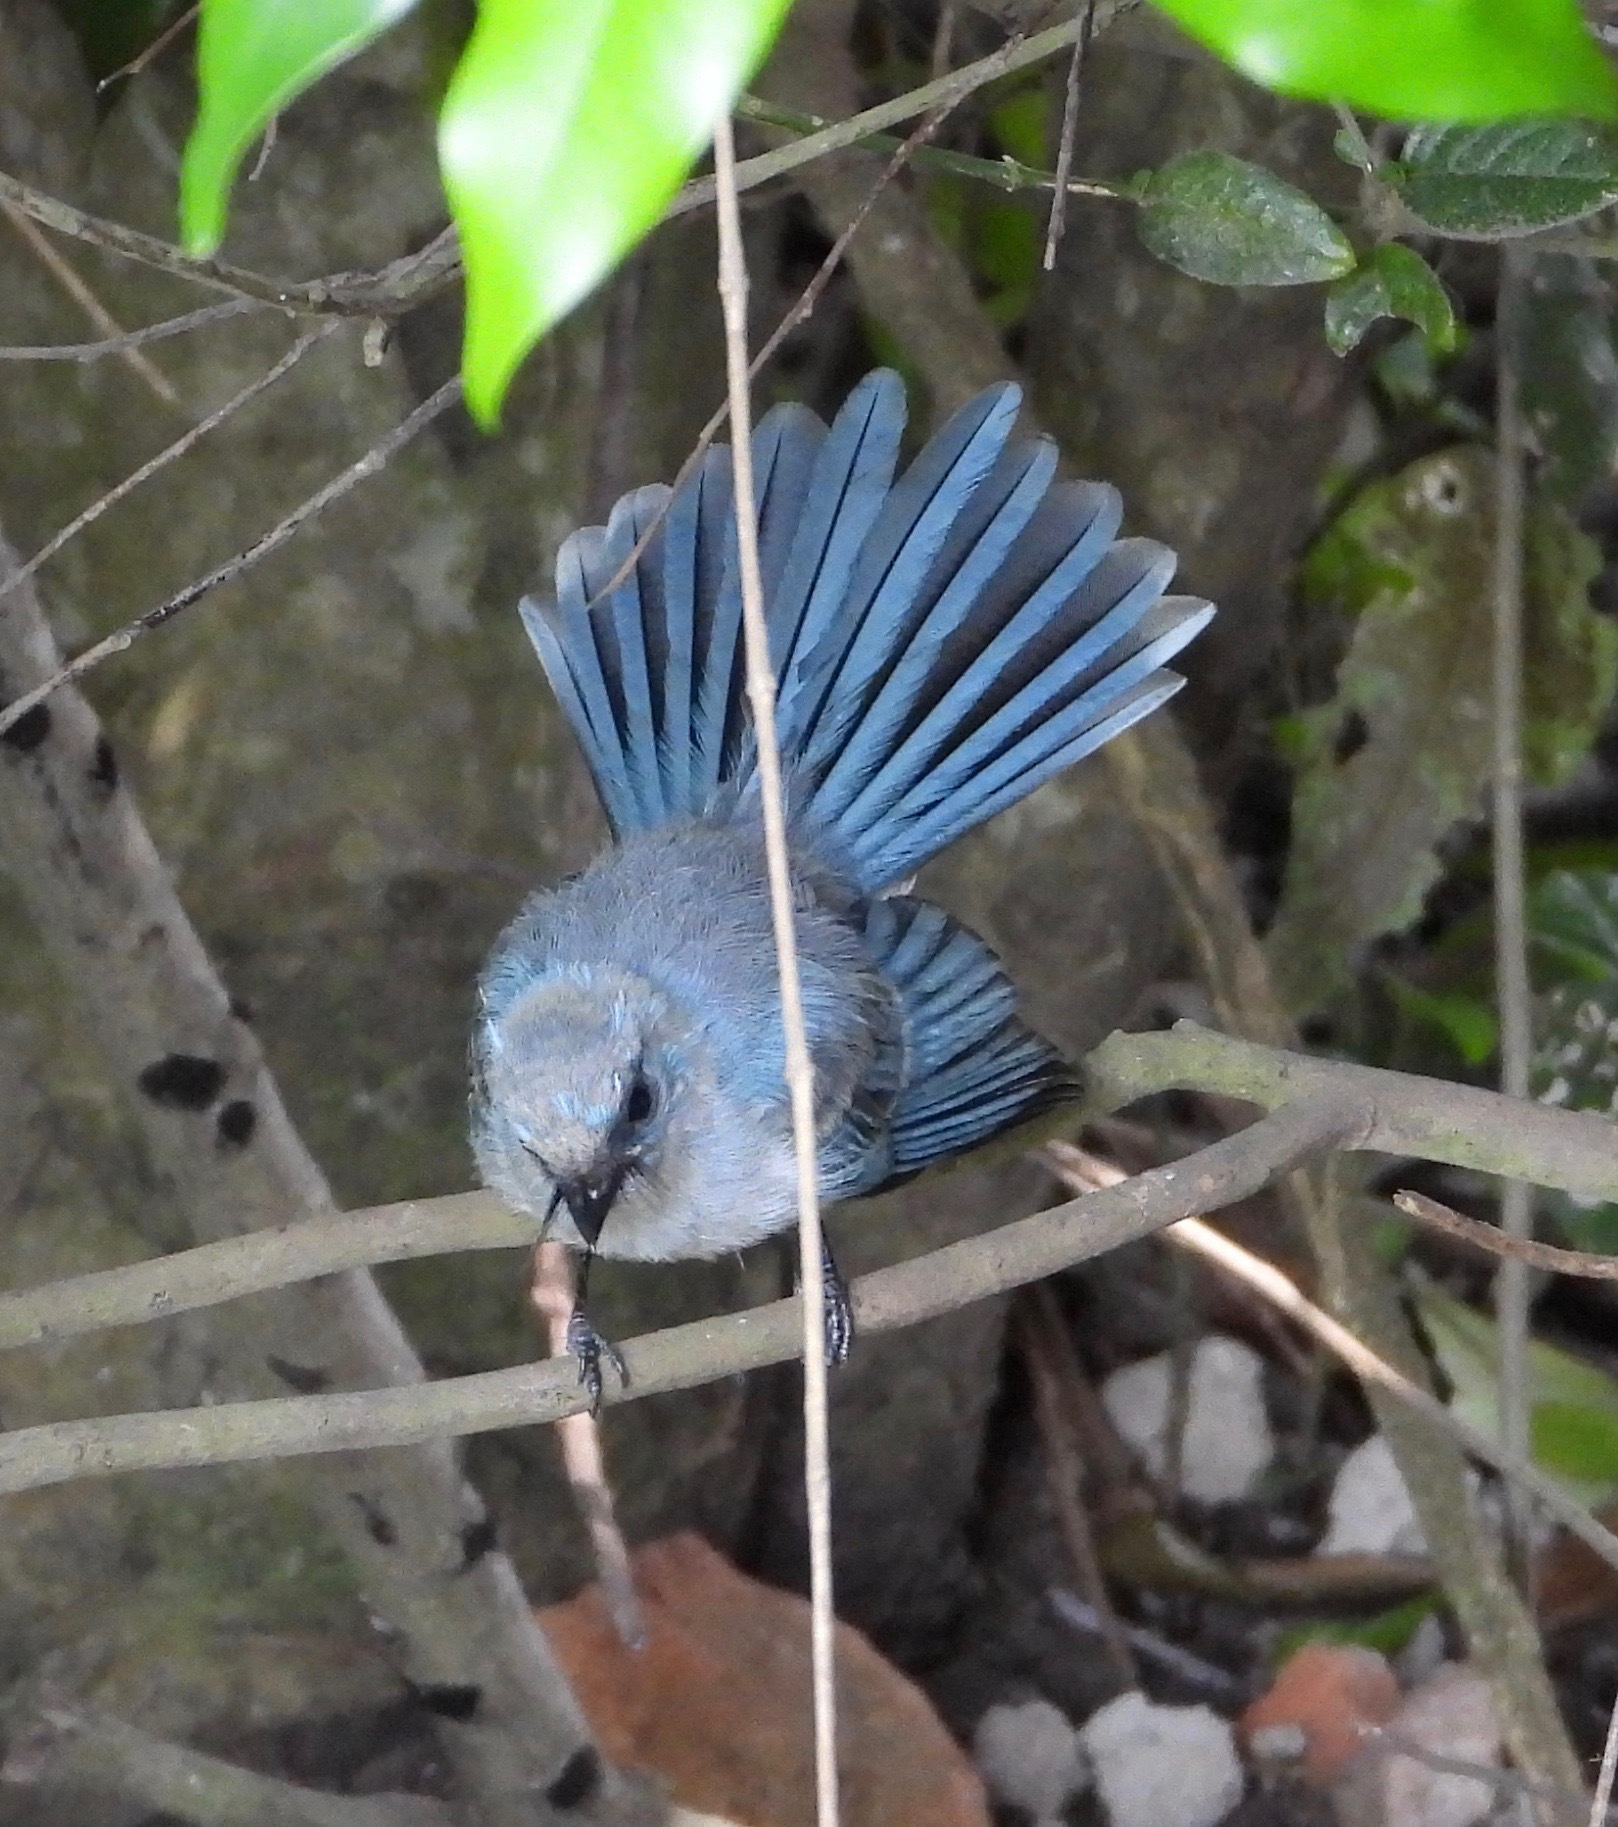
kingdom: Animalia
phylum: Chordata
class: Aves
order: Passeriformes
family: Stenostiridae
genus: Elminia
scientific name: Elminia longicauda
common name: African blue flycatcher
